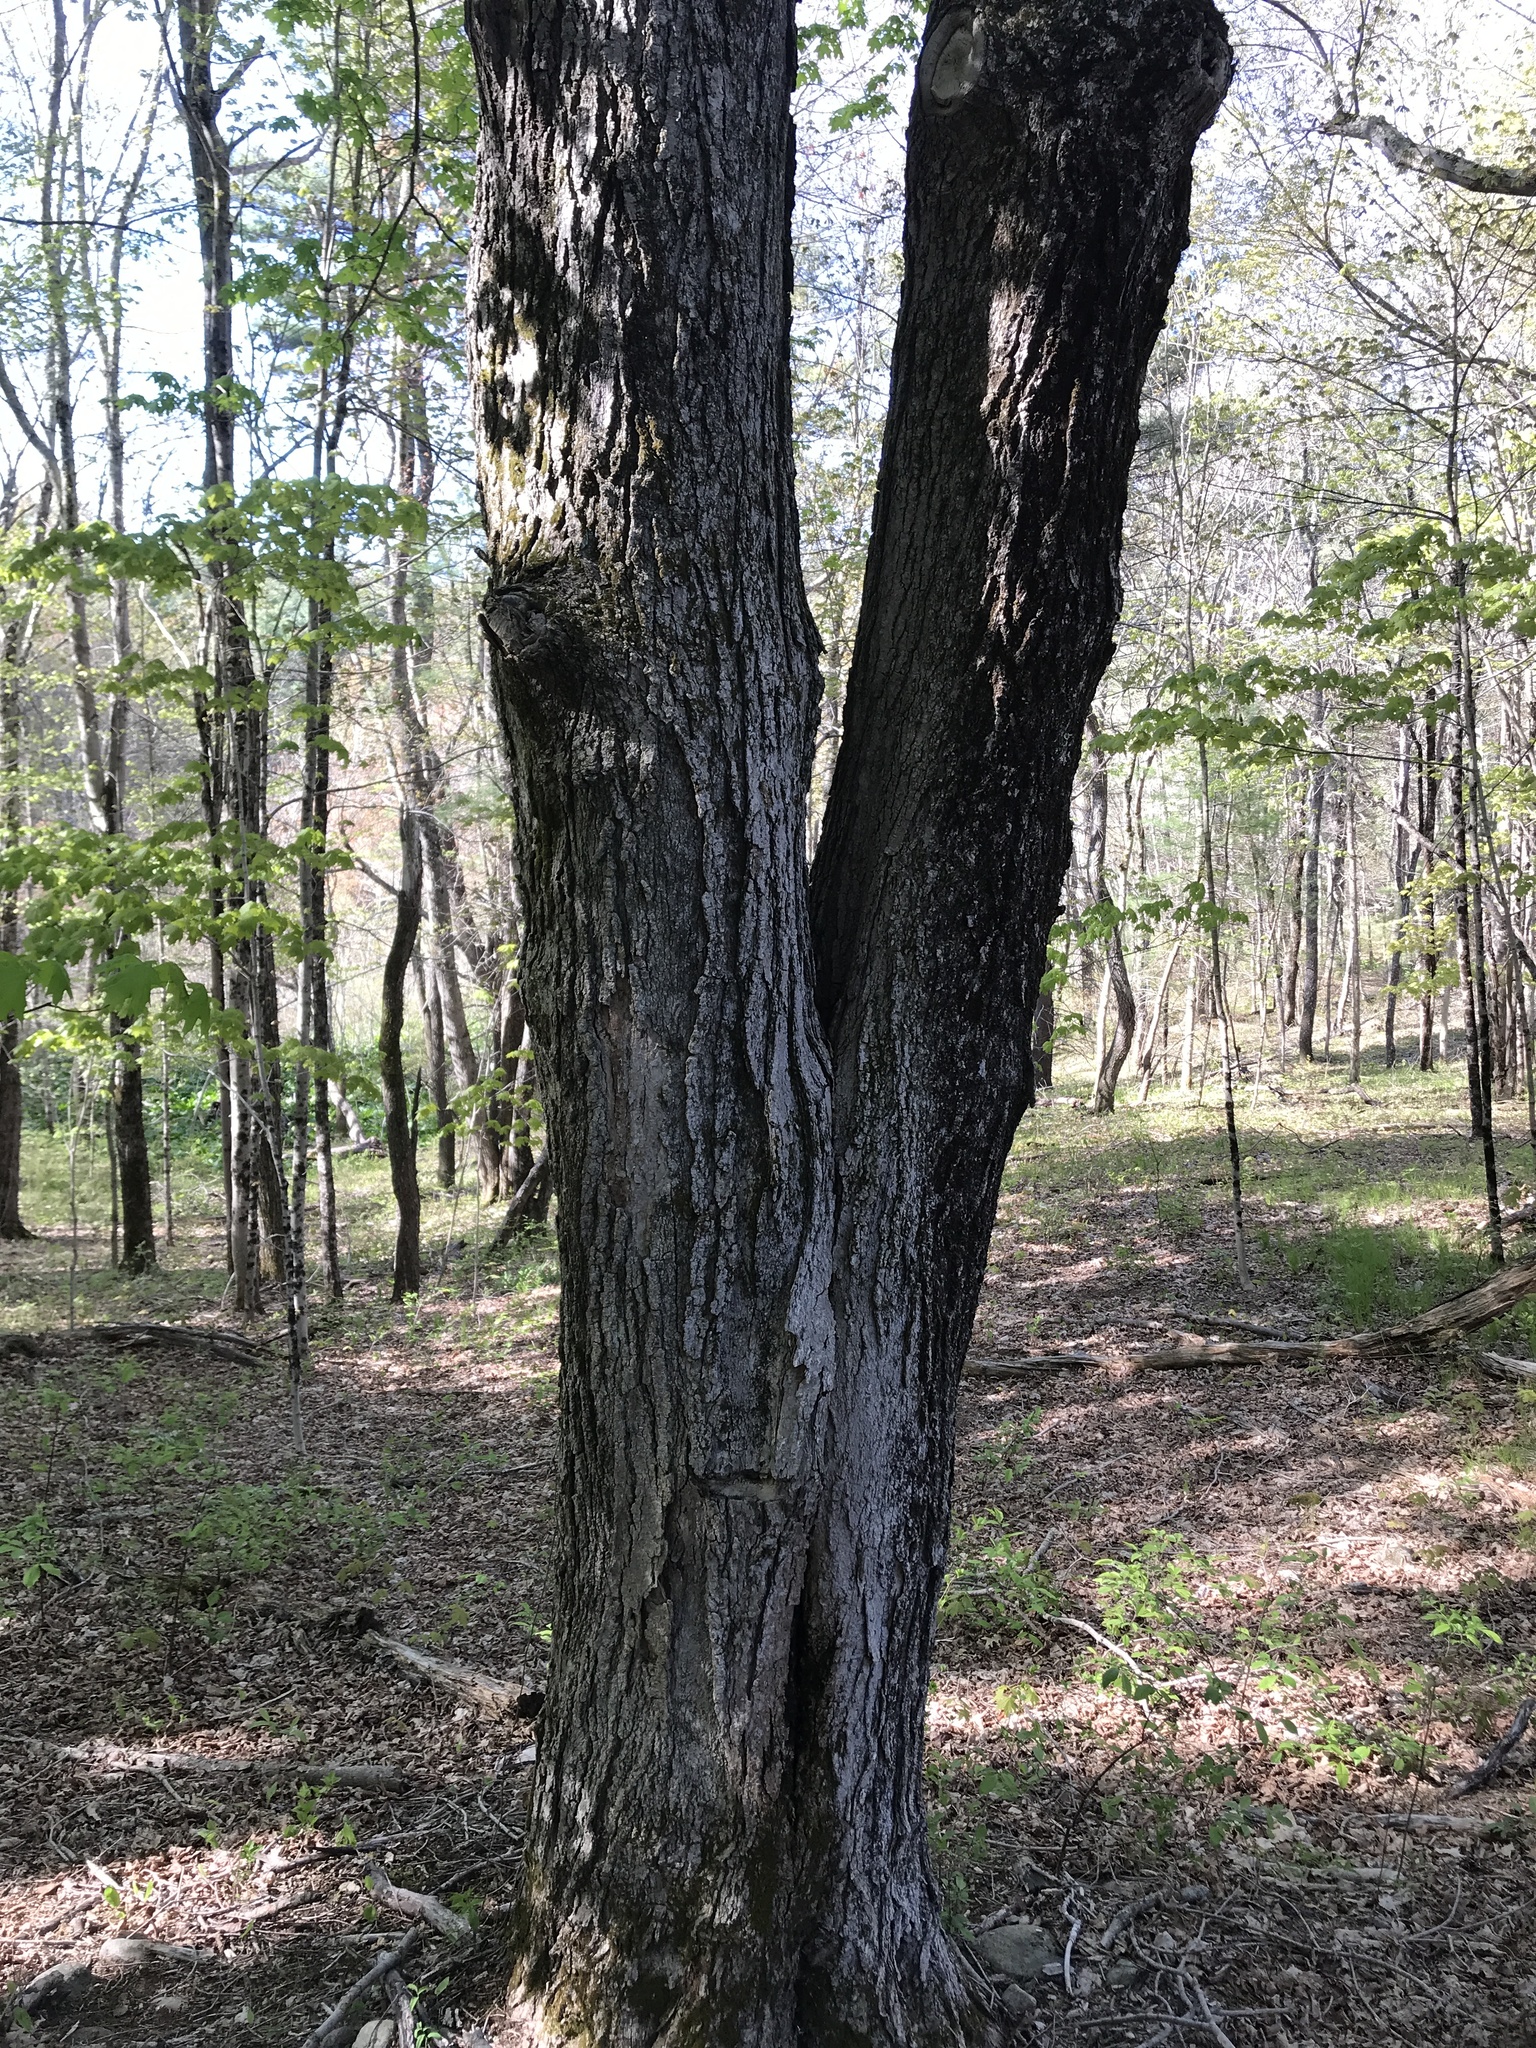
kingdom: Plantae
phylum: Tracheophyta
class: Magnoliopsida
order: Sapindales
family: Sapindaceae
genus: Acer
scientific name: Acer saccharum
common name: Sugar maple
